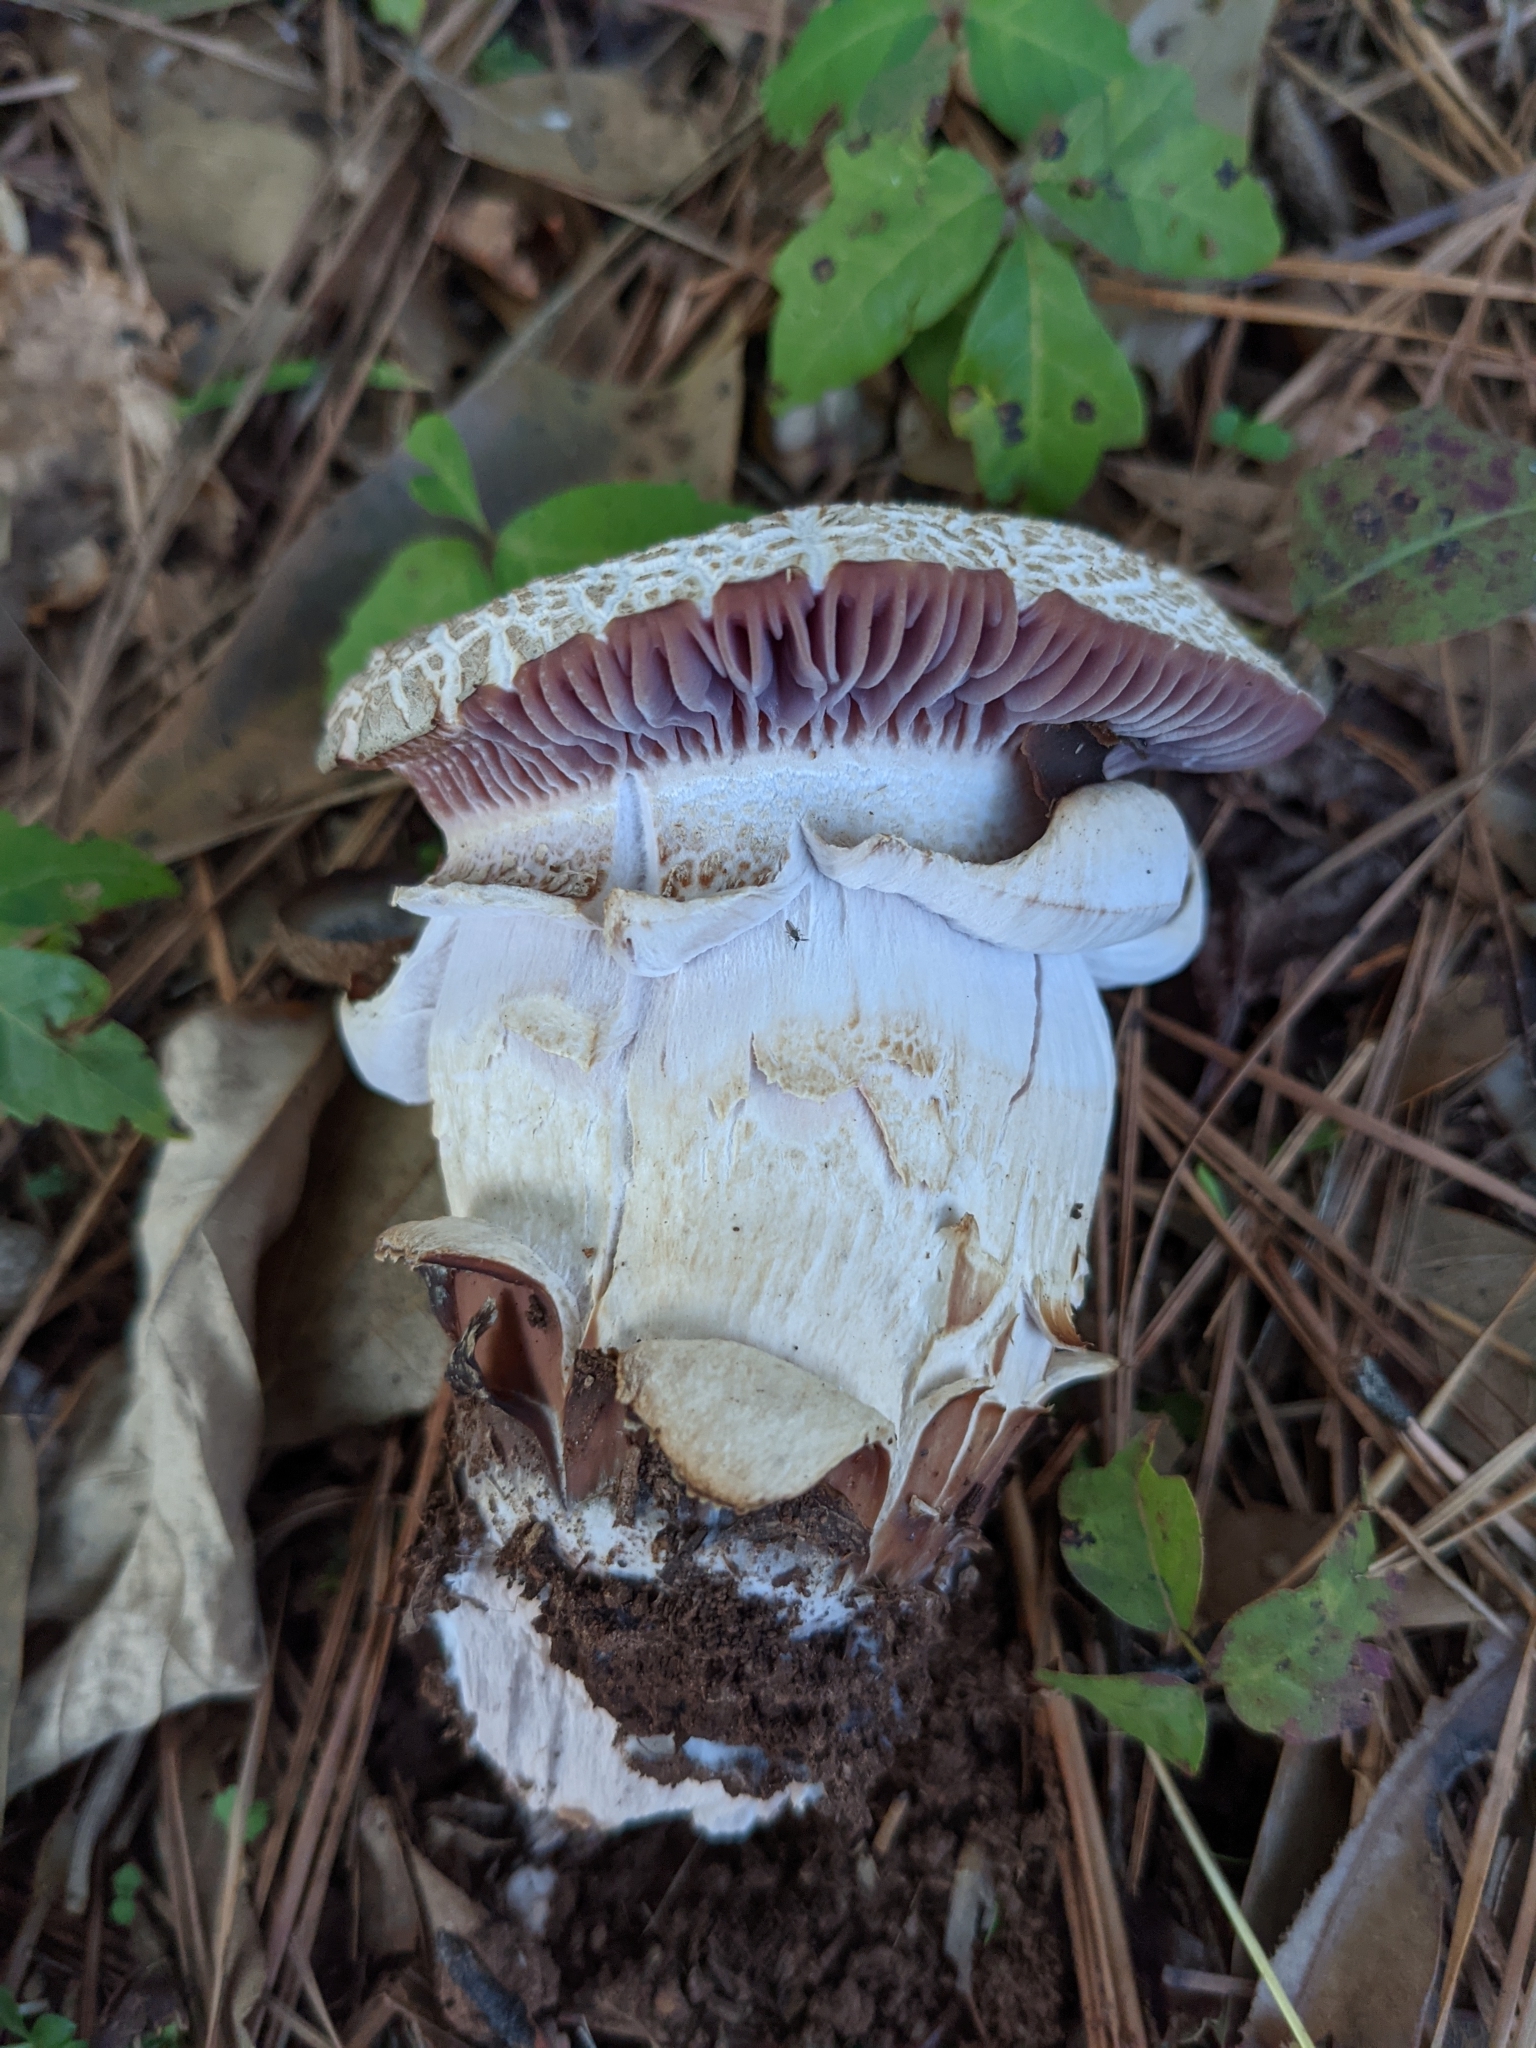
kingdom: Fungi
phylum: Basidiomycota
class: Agaricomycetes
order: Agaricales
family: Hydnangiaceae
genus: Laccaria
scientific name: Laccaria ochropurpurea
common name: Purple laccaria
